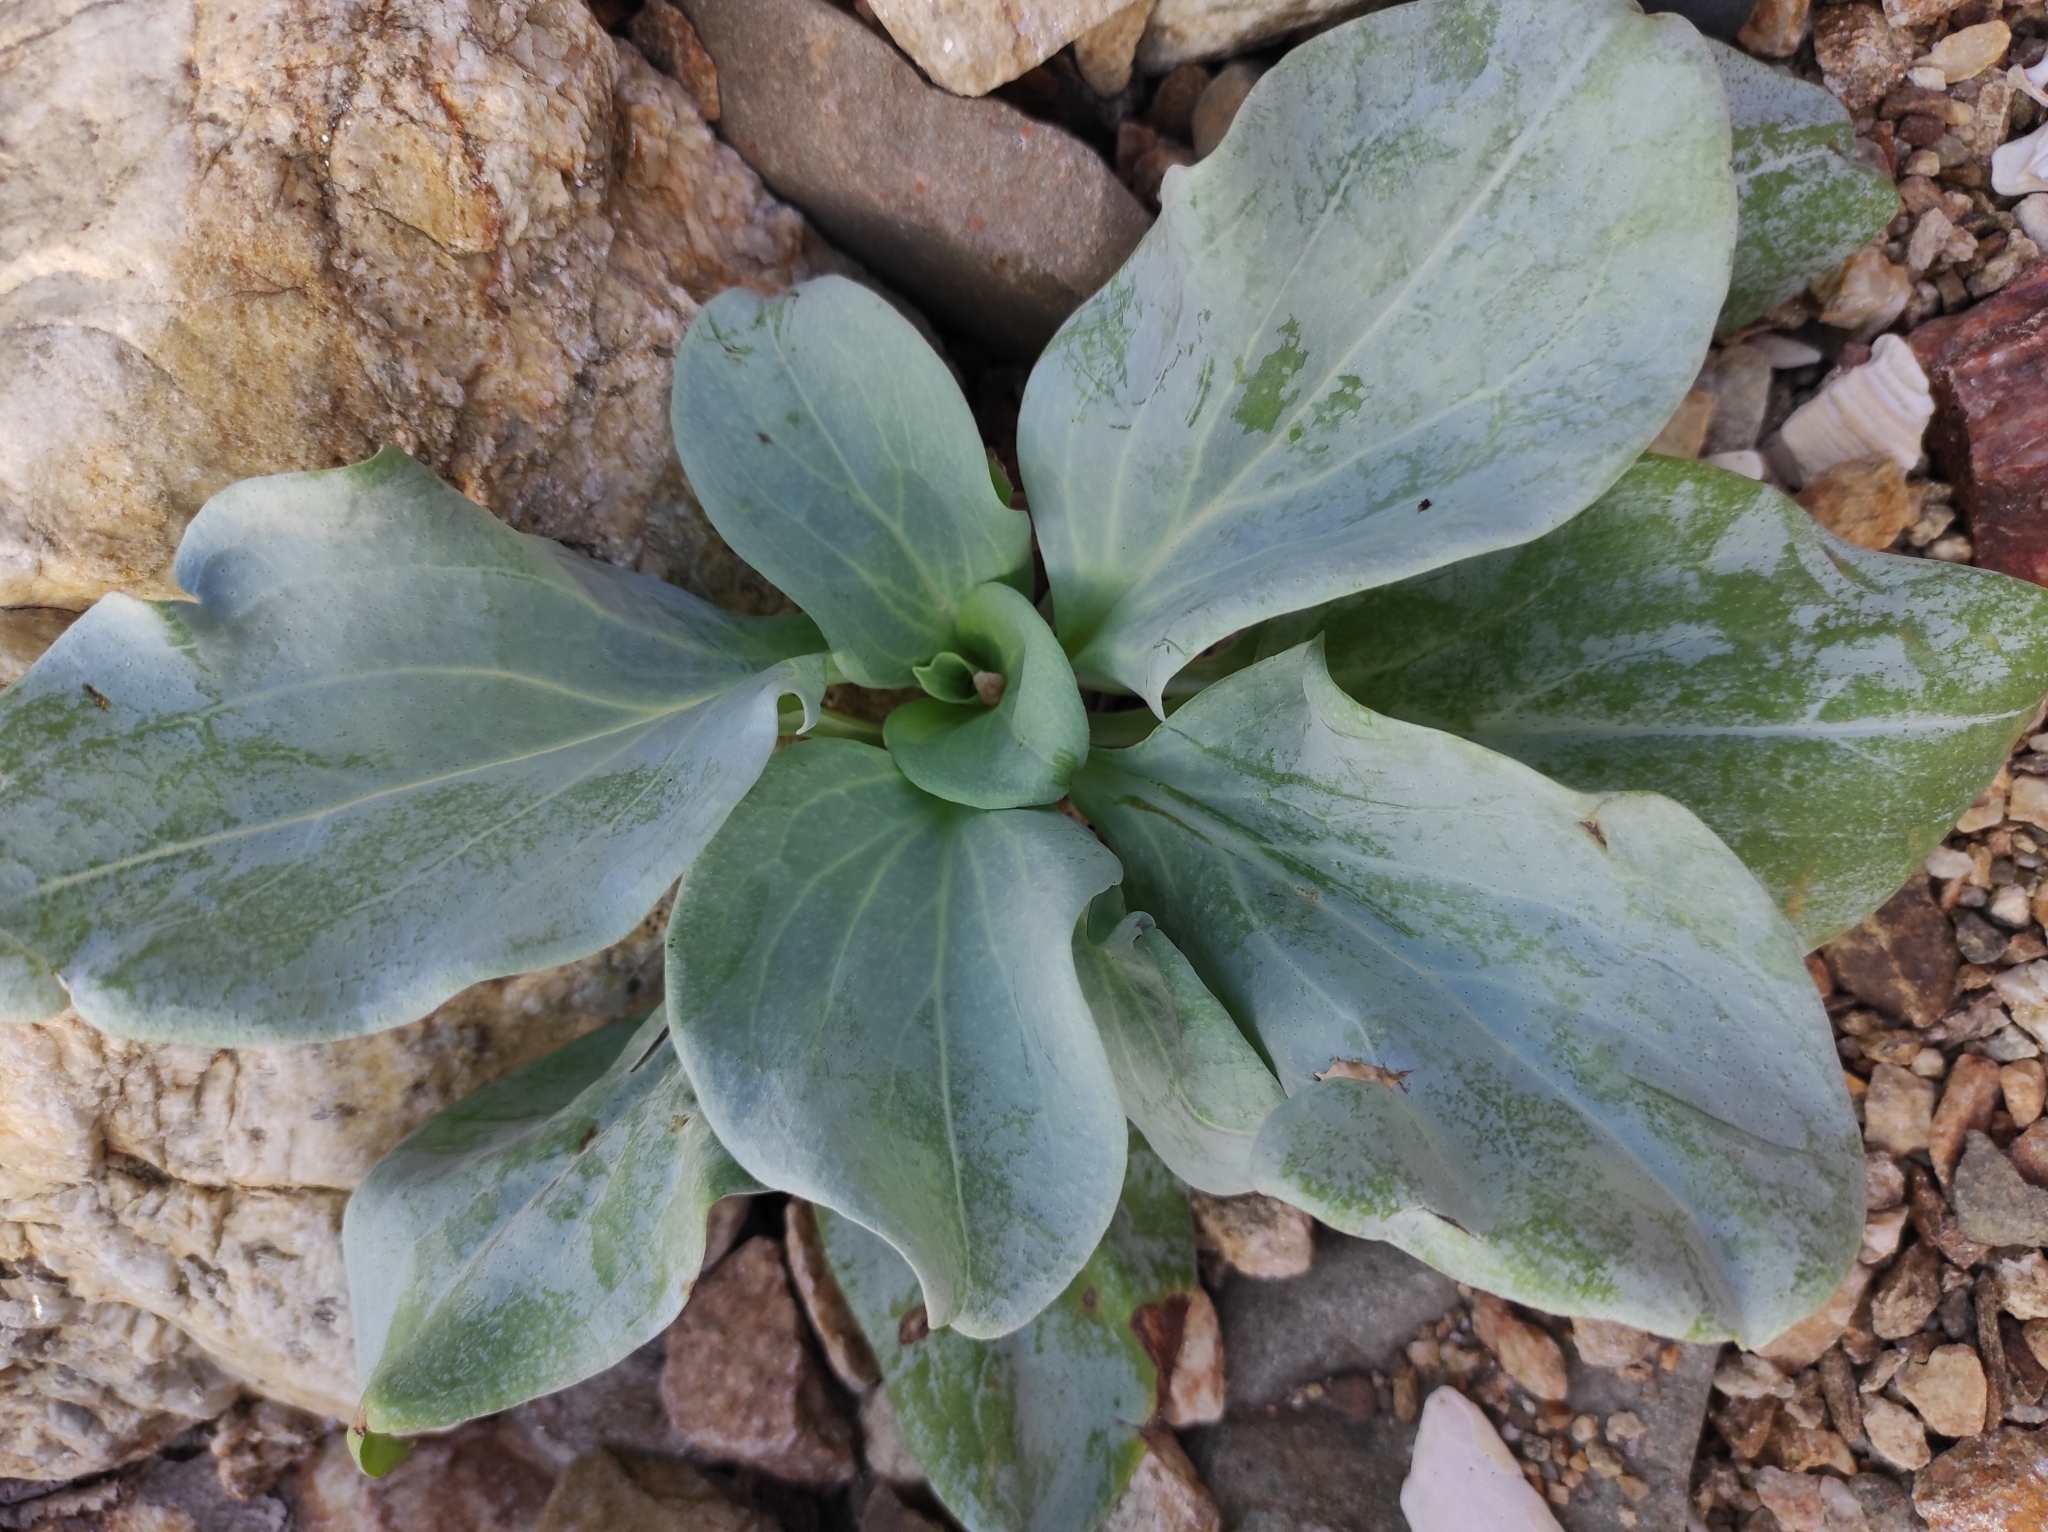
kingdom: Plantae
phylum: Tracheophyta
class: Magnoliopsida
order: Boraginales
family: Boraginaceae
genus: Mertensia
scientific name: Mertensia simplicissima
